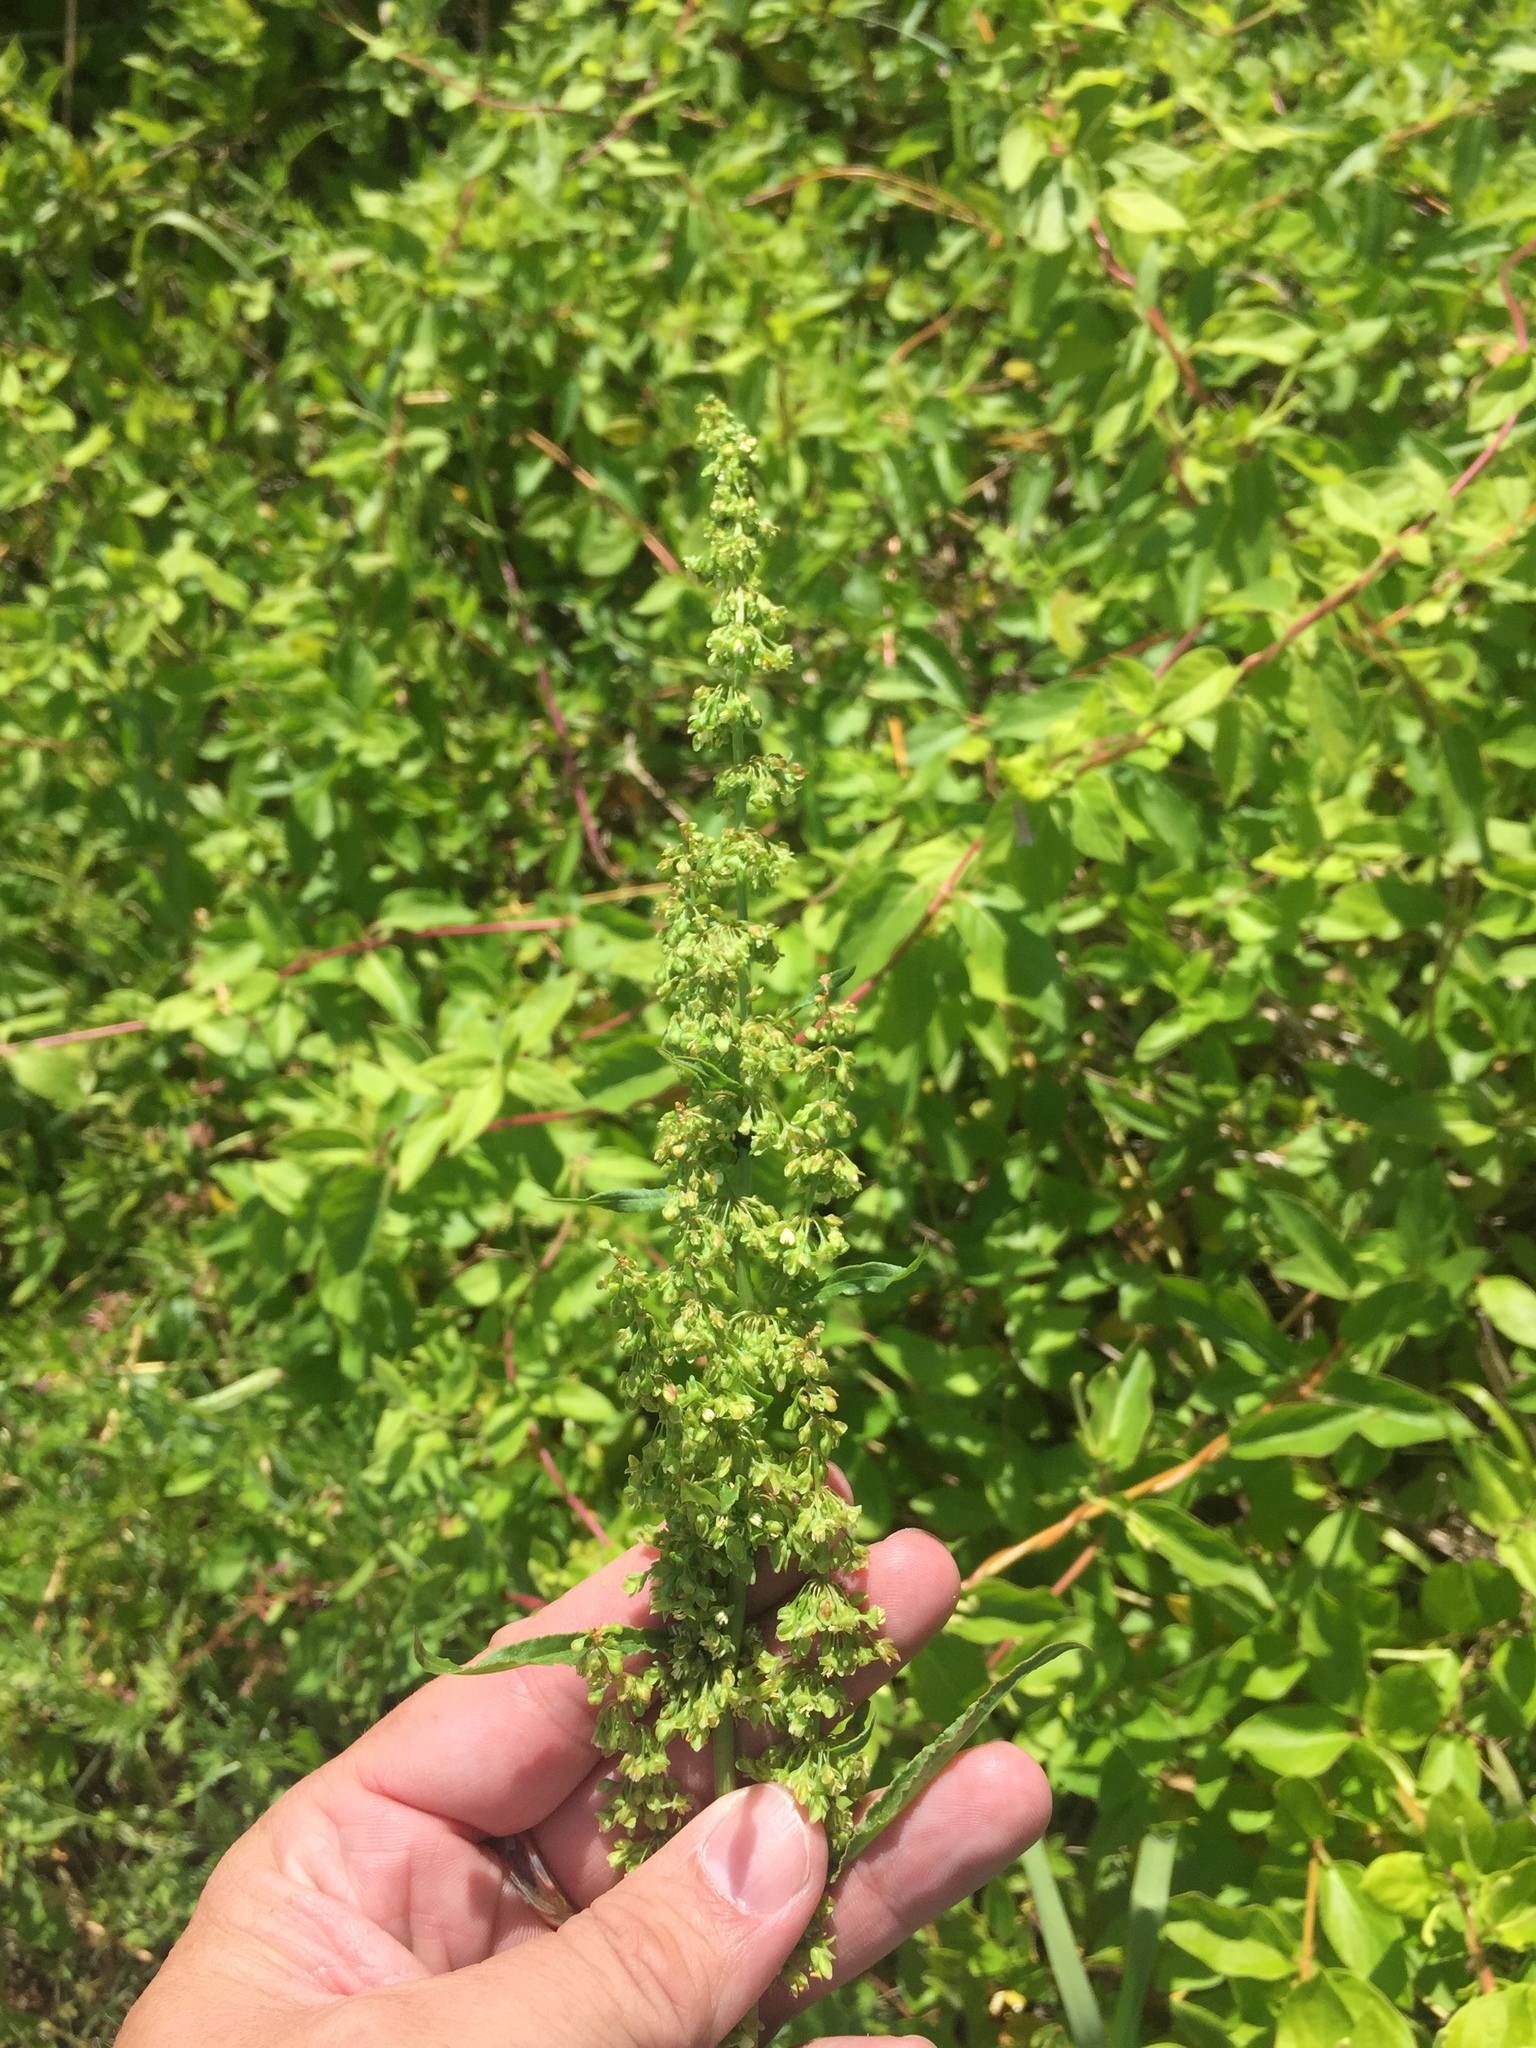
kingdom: Plantae
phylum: Tracheophyta
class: Magnoliopsida
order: Caryophyllales
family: Polygonaceae
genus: Rumex
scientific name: Rumex crispus
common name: Curled dock
